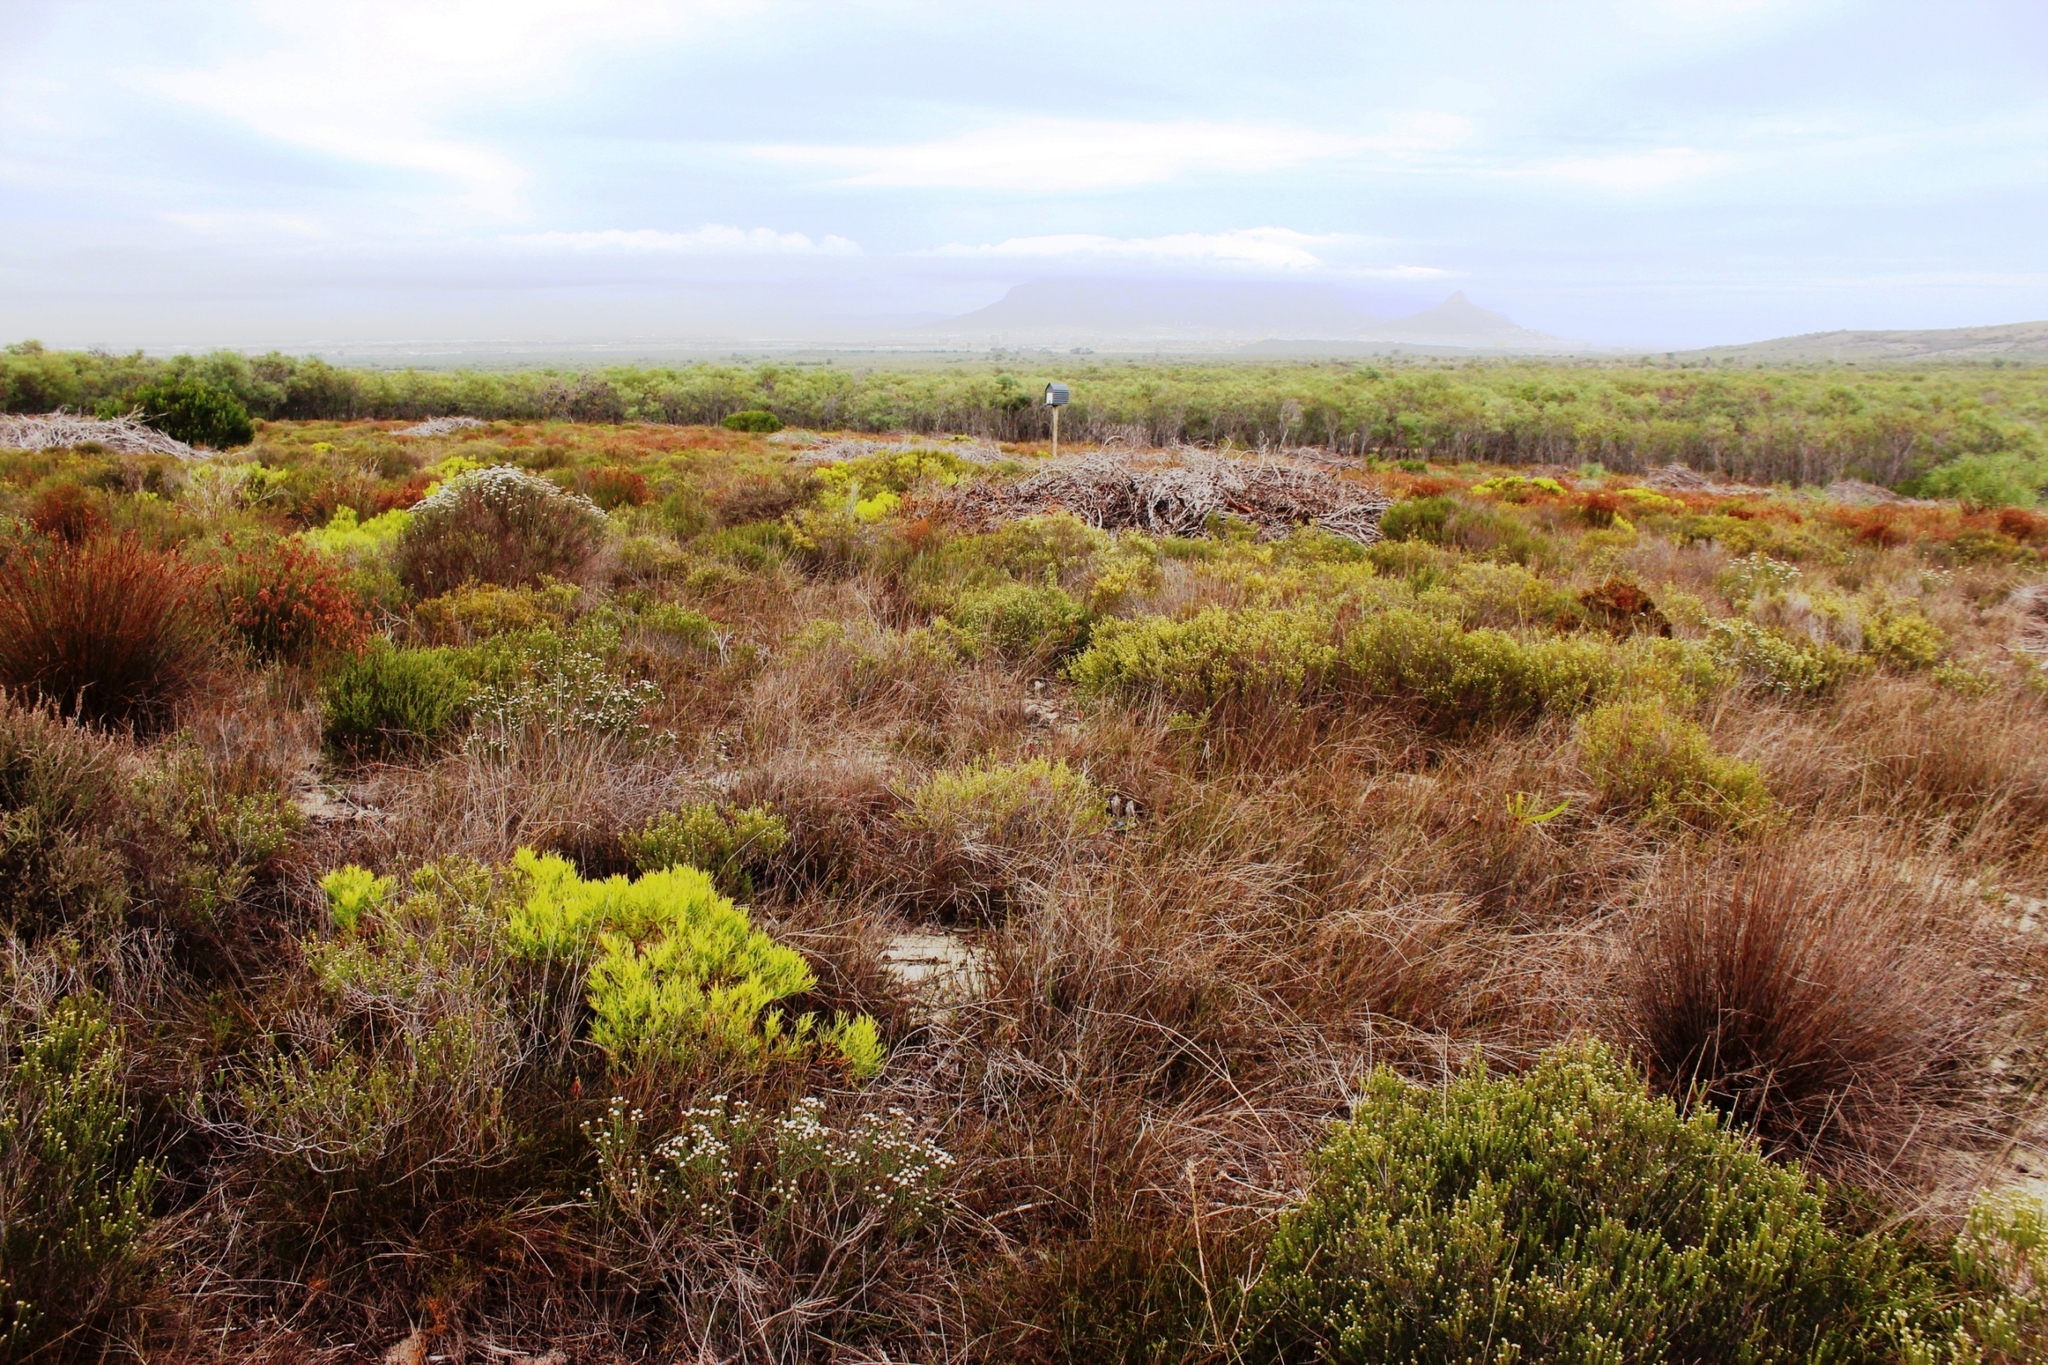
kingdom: Plantae
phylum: Tracheophyta
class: Magnoliopsida
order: Rosales
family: Rhamnaceae
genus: Phylica
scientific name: Phylica cephalantha
